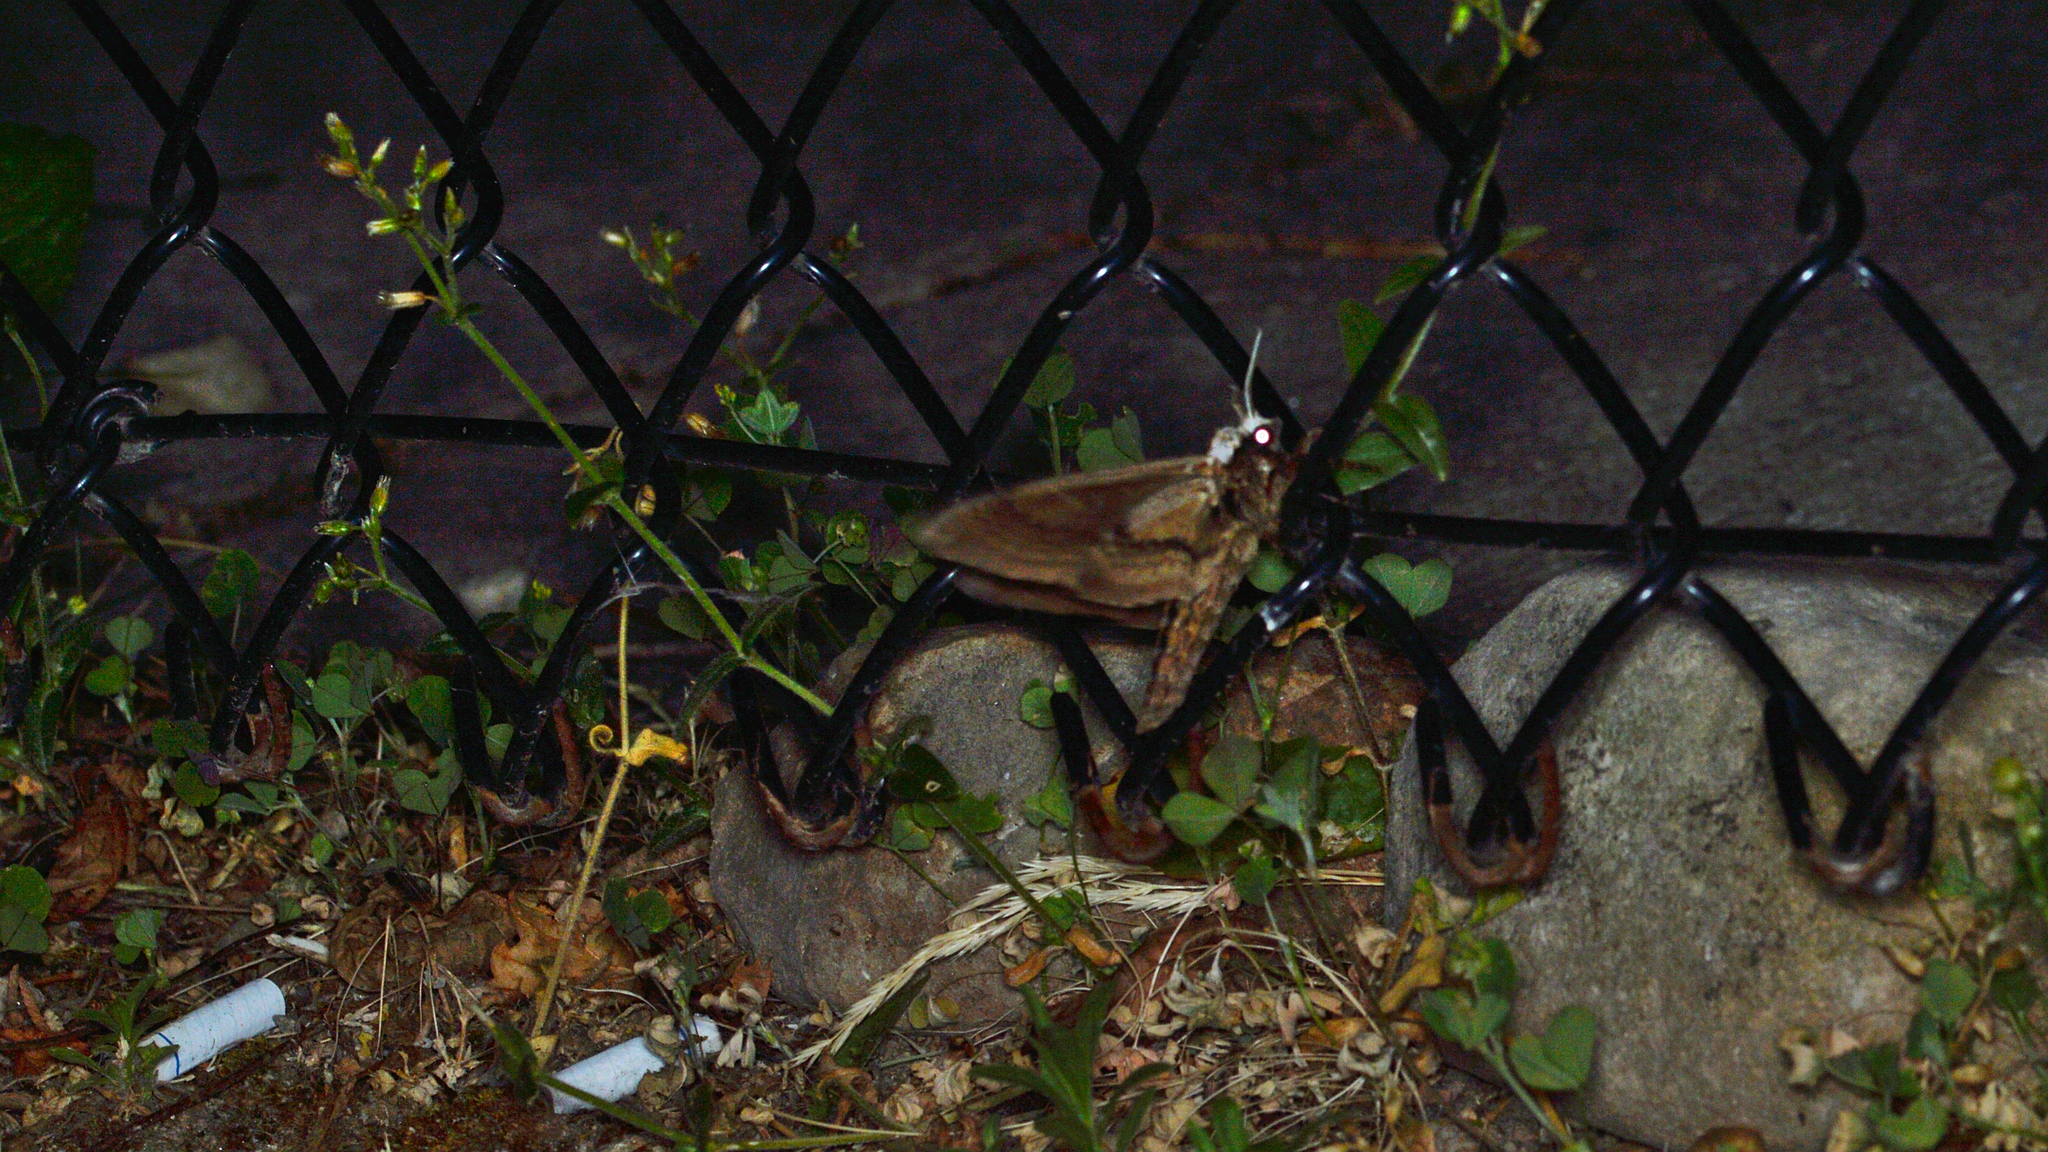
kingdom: Animalia
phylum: Arthropoda
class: Insecta
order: Lepidoptera
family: Sphingidae
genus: Ceratomia
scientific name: Ceratomia amyntor
